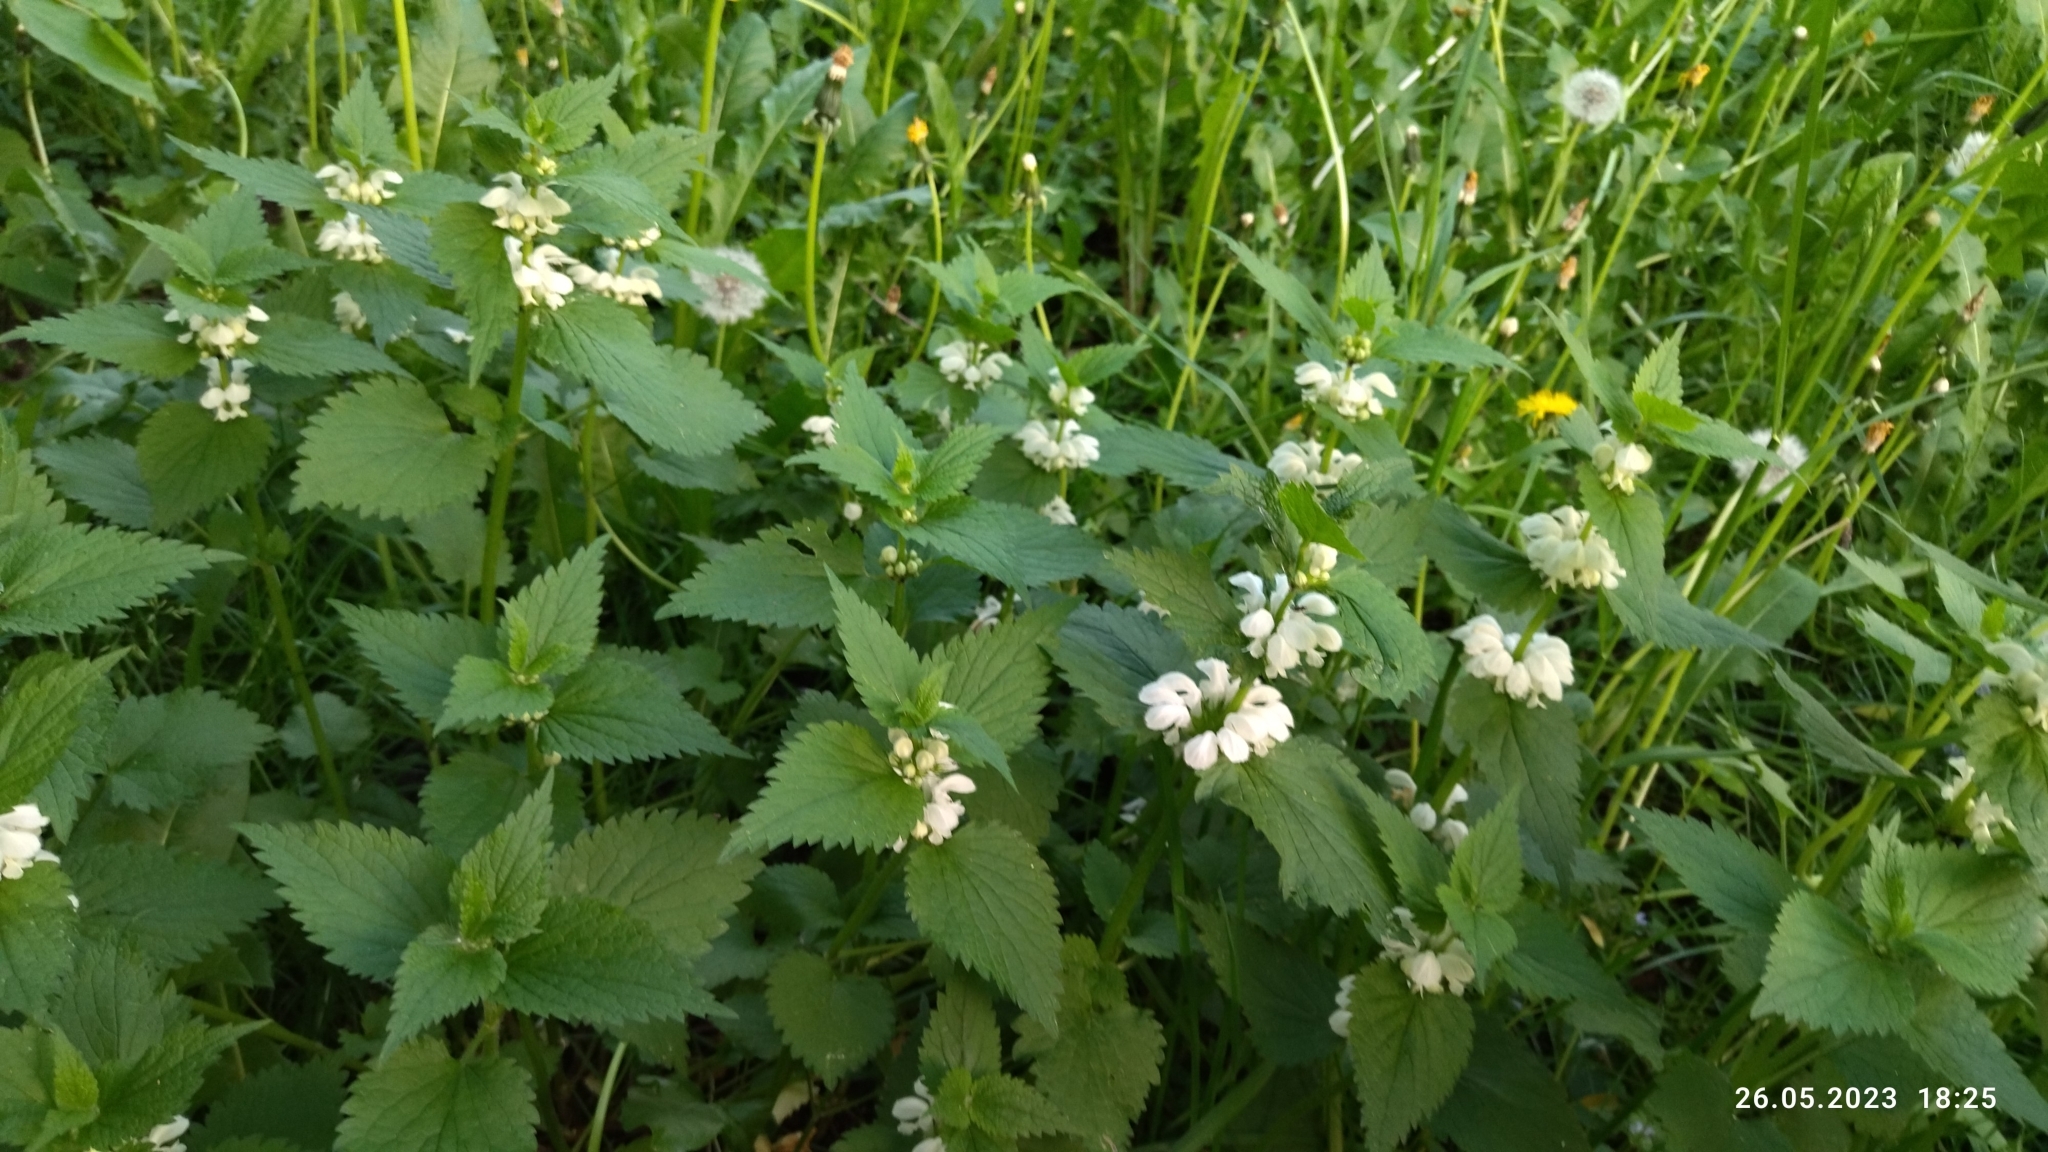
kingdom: Plantae
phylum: Tracheophyta
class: Magnoliopsida
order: Lamiales
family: Lamiaceae
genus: Lamium
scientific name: Lamium album
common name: White dead-nettle
